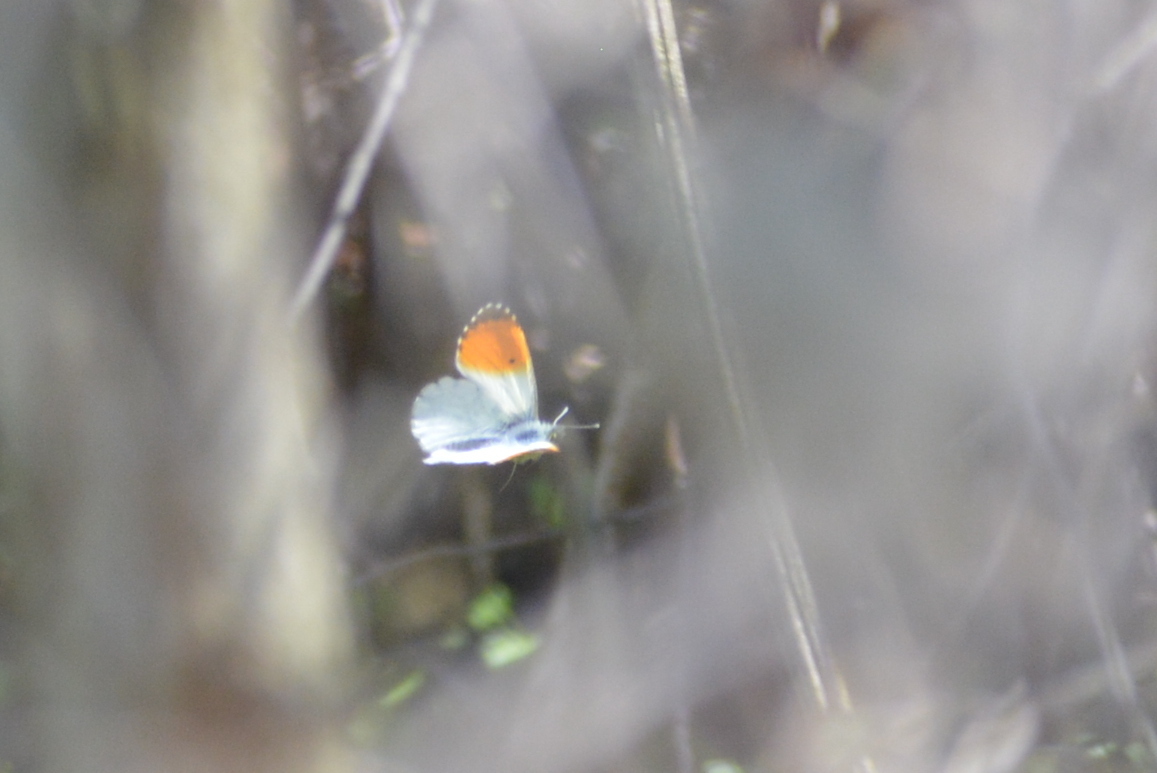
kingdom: Animalia
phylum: Arthropoda
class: Insecta
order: Lepidoptera
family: Pieridae
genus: Anthocharis
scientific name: Anthocharis cardamines
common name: Orange-tip
